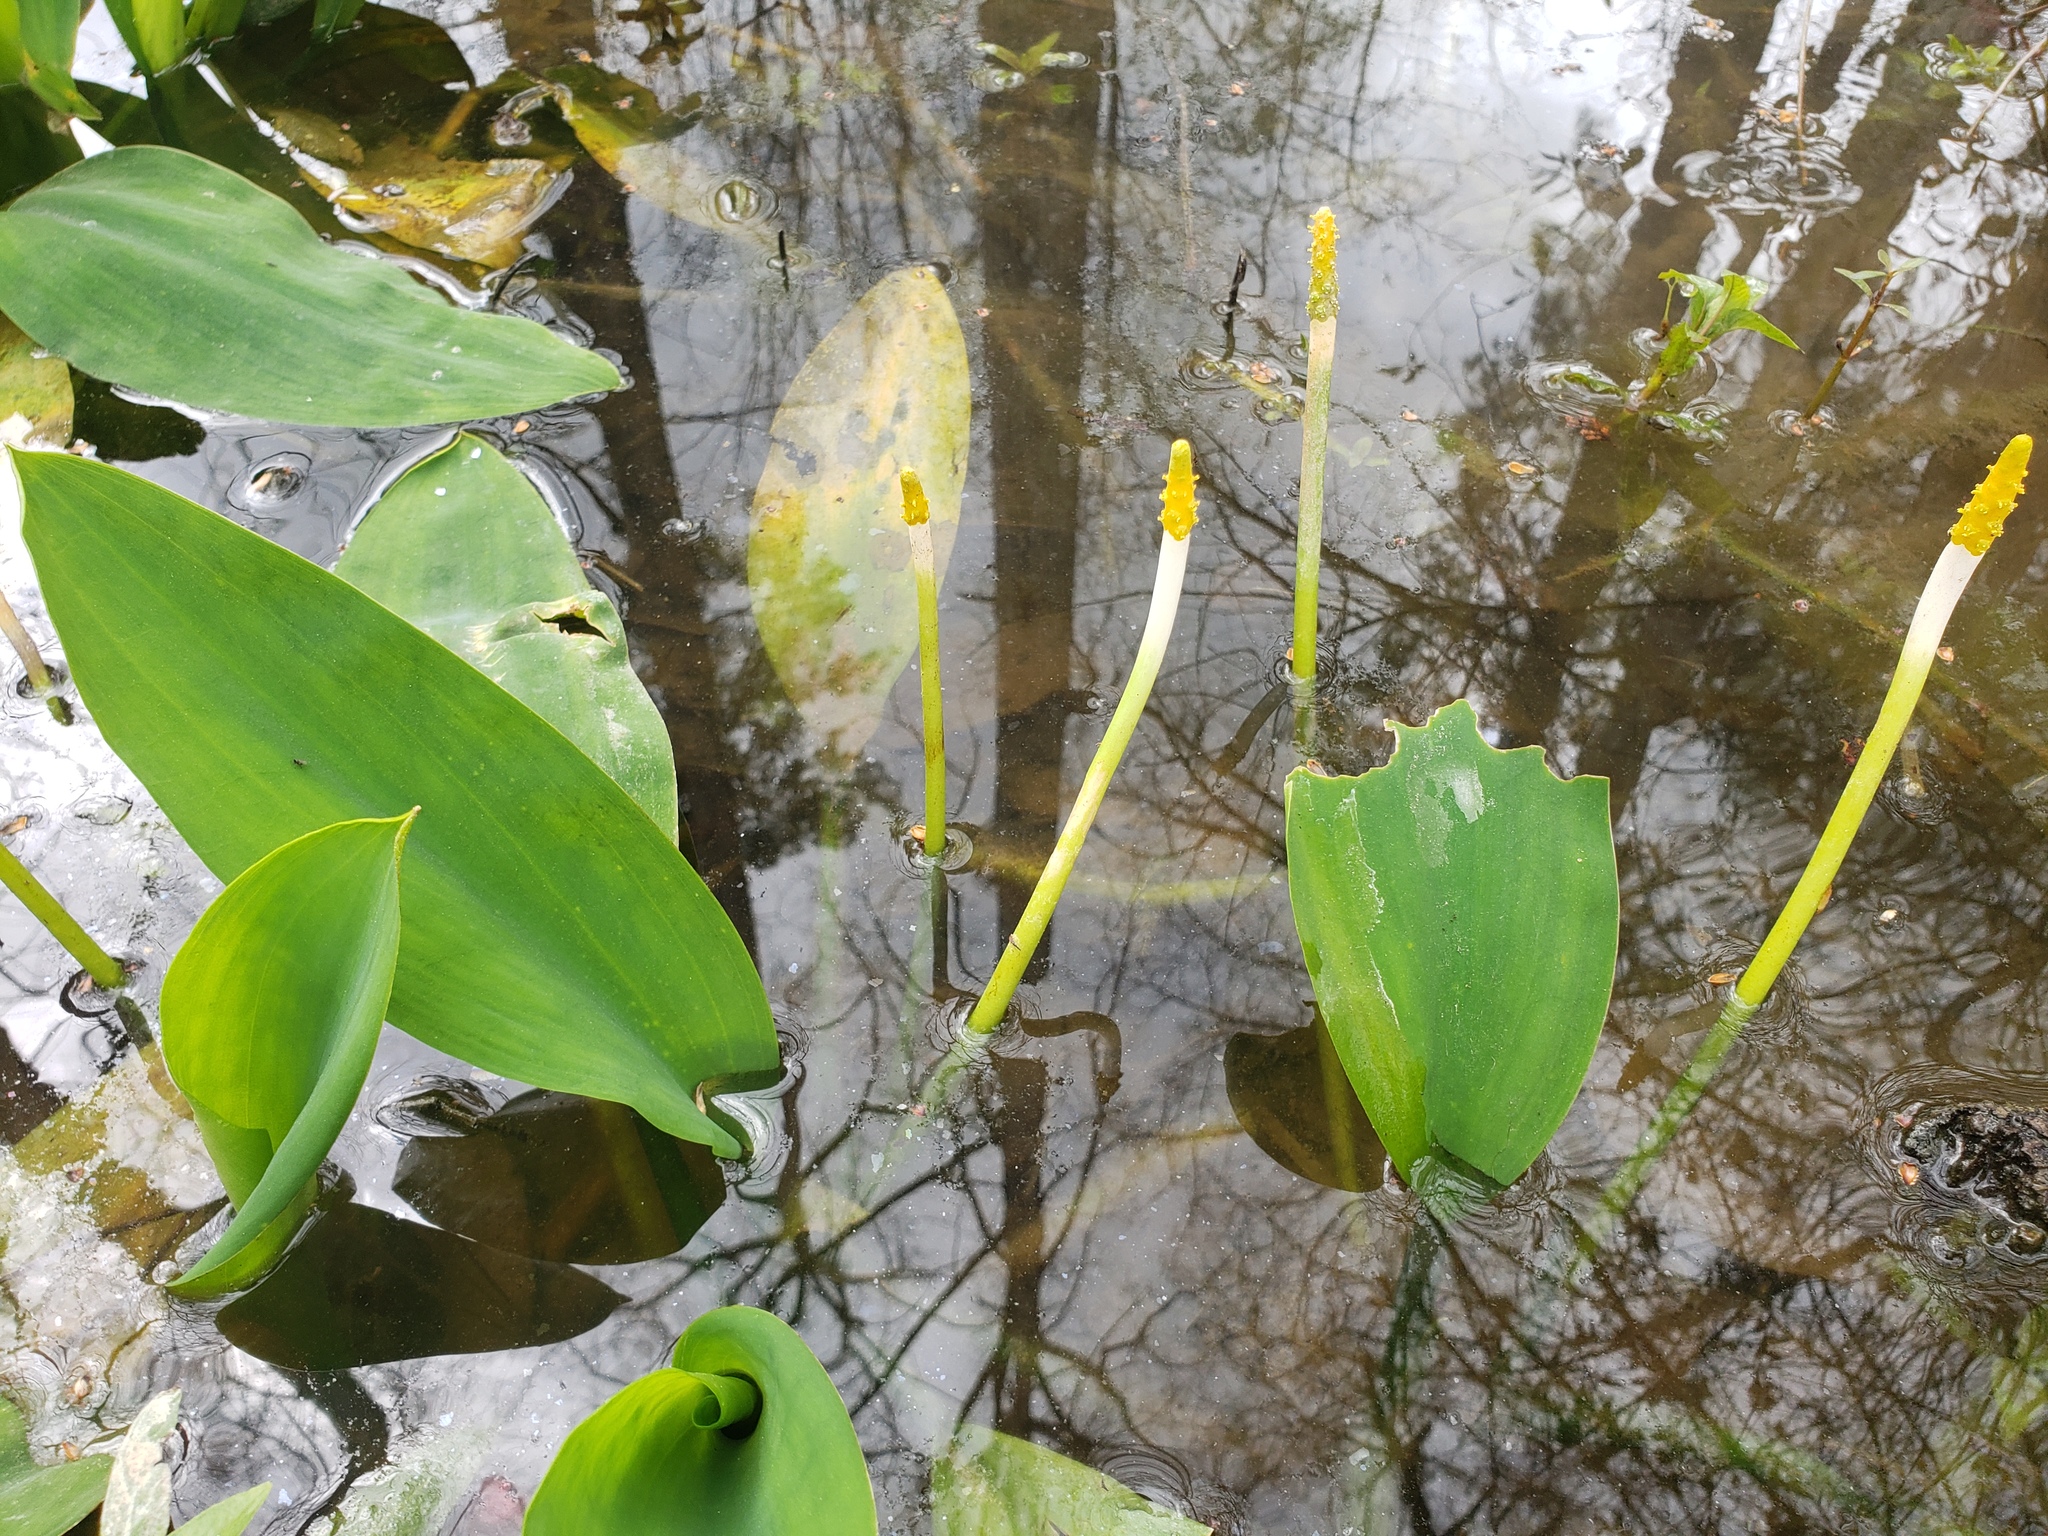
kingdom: Plantae
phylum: Tracheophyta
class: Liliopsida
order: Alismatales
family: Araceae
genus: Orontium
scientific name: Orontium aquaticum
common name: Golden-club
